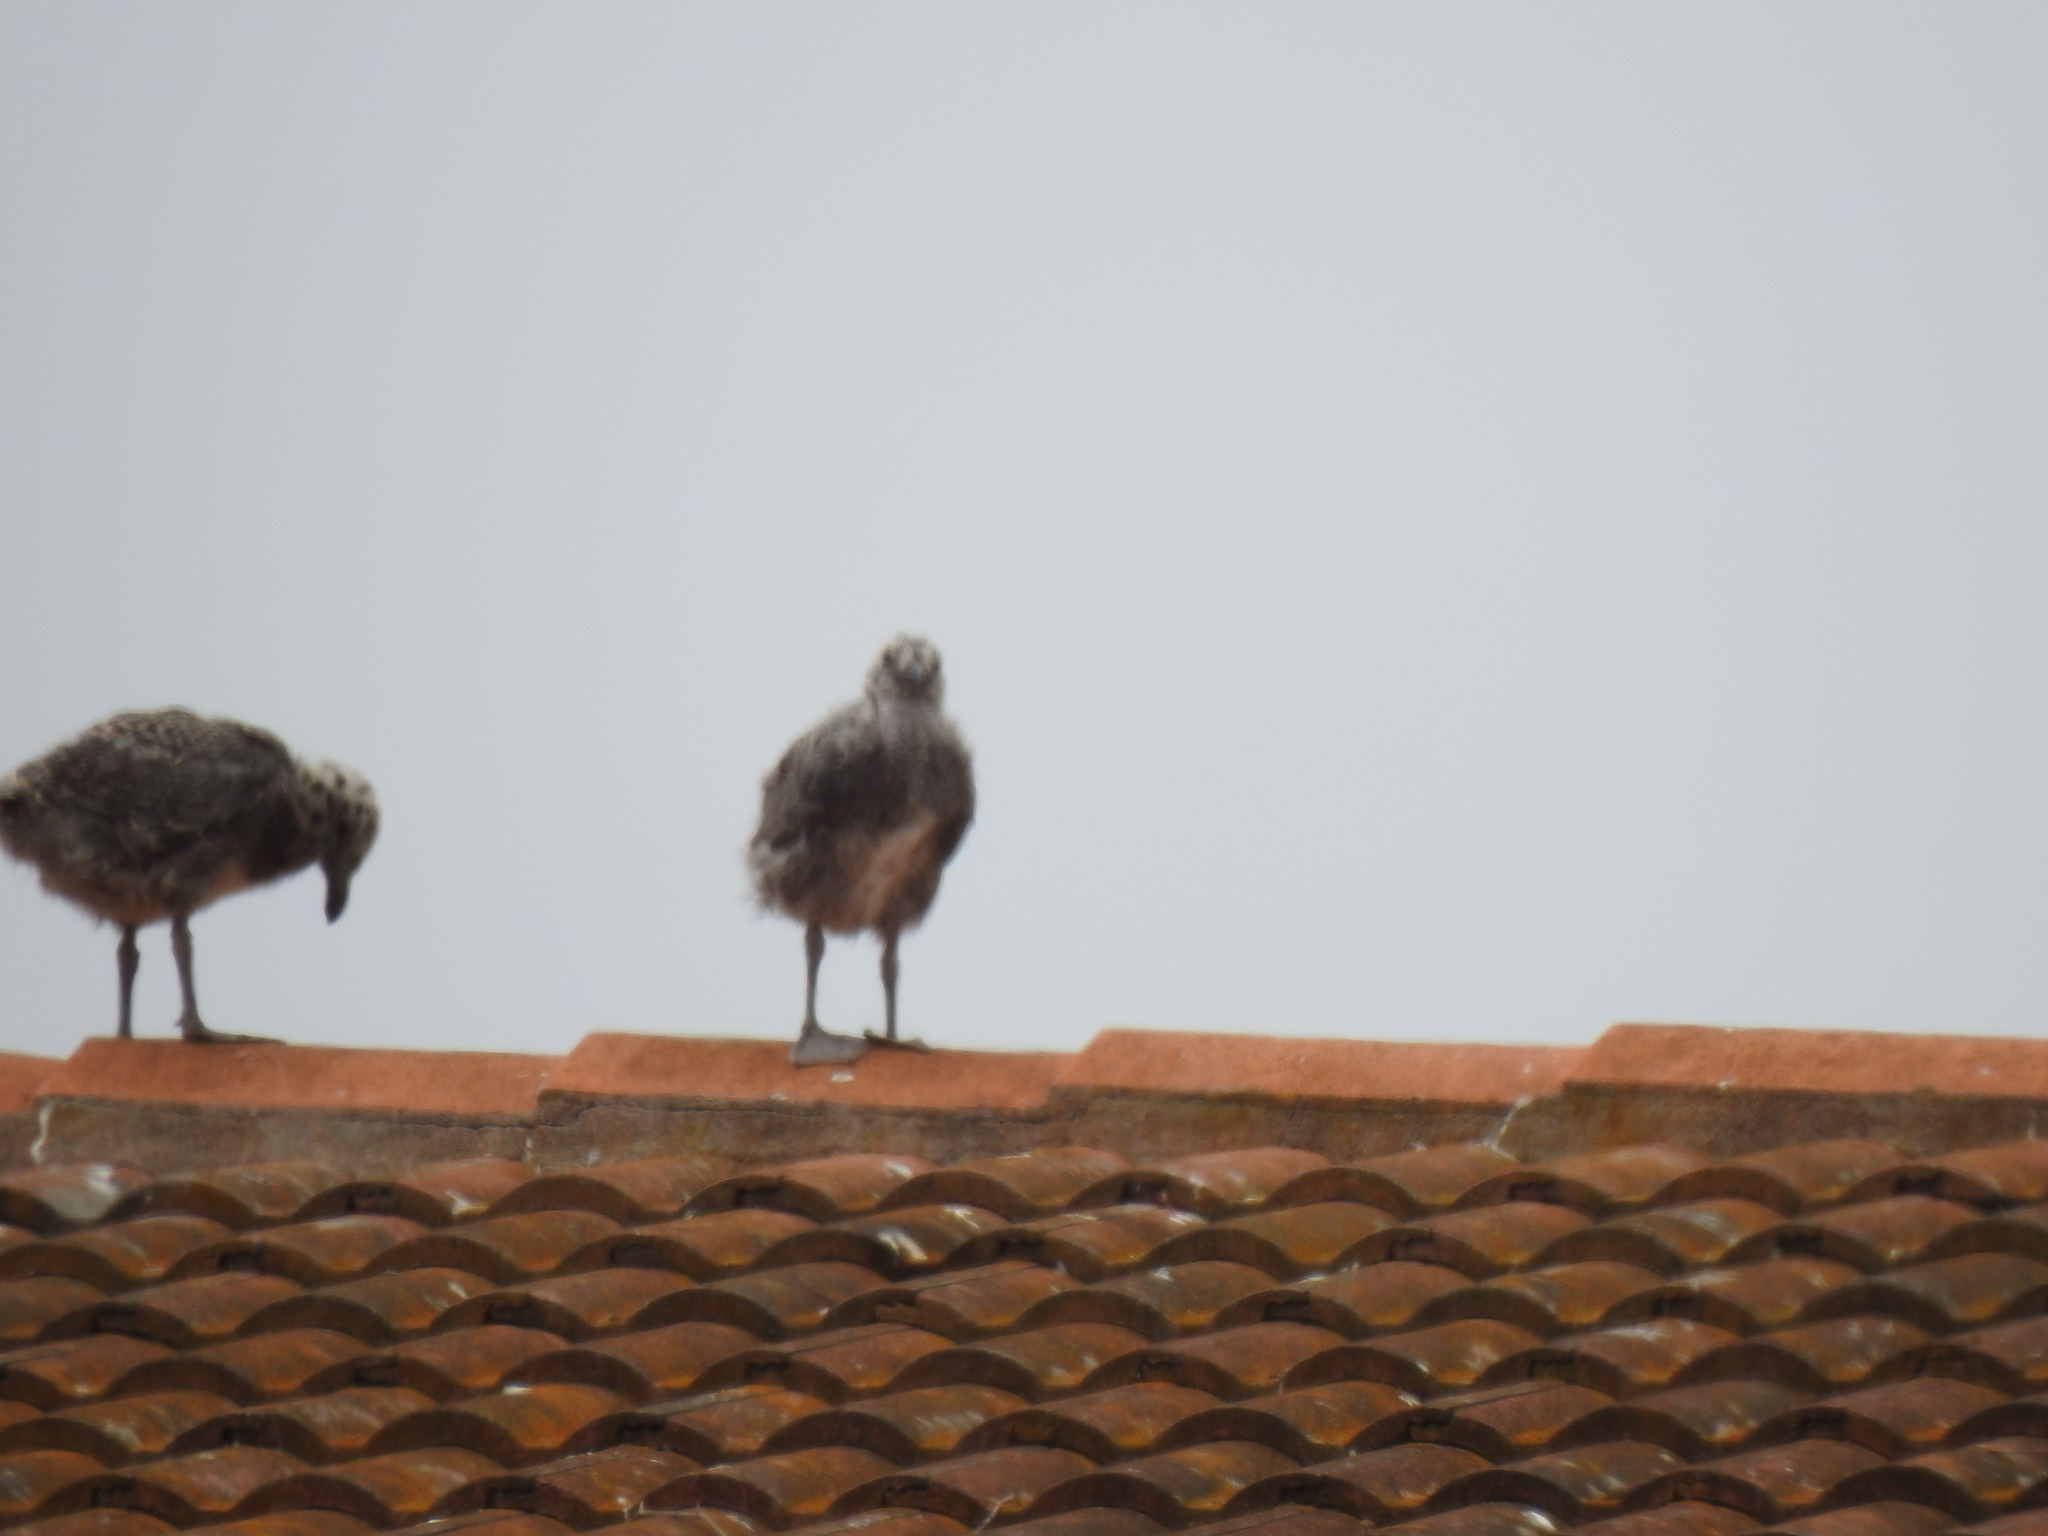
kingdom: Animalia
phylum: Chordata
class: Aves
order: Charadriiformes
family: Laridae
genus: Larus
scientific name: Larus occidentalis
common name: Western gull
